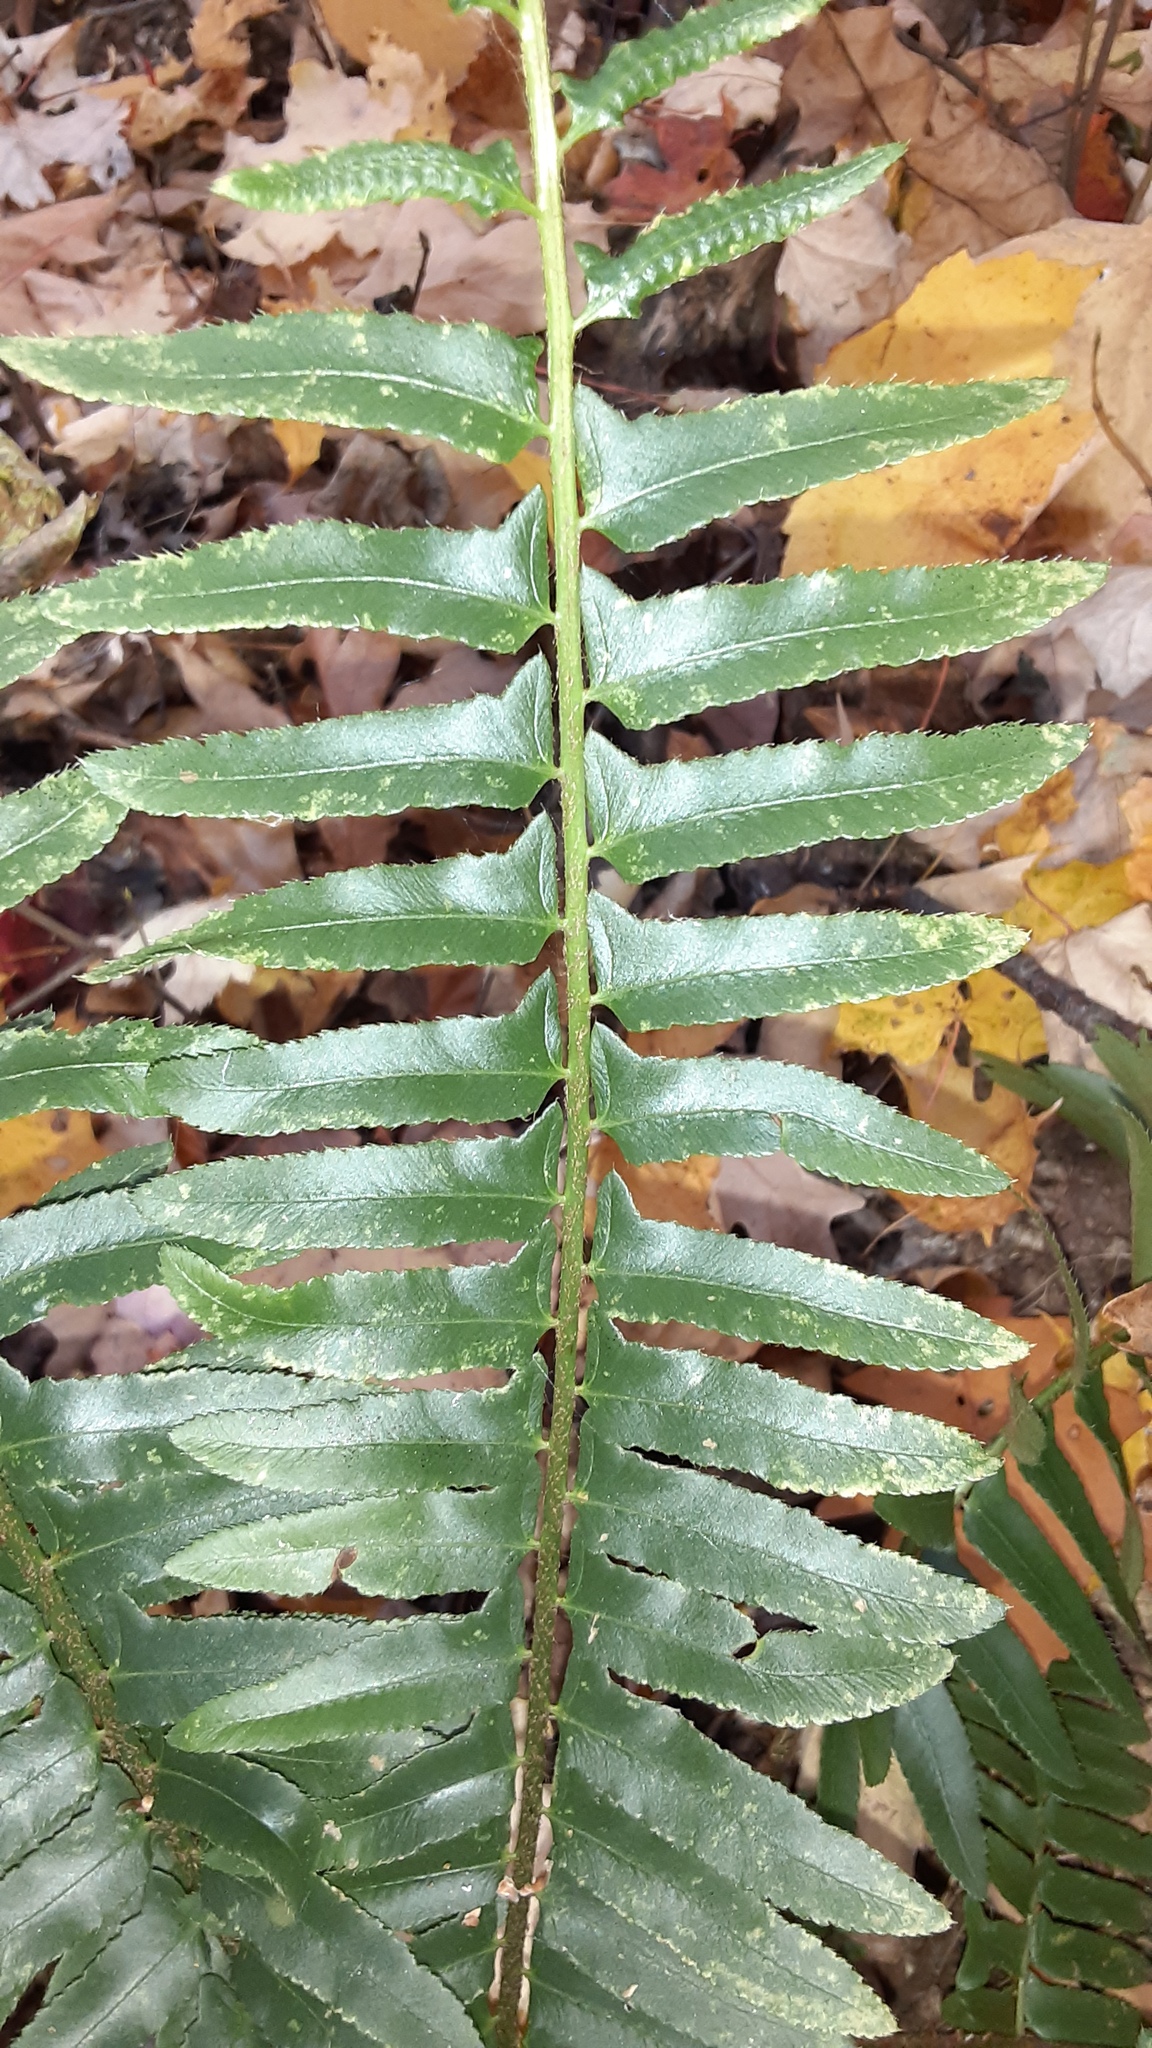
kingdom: Plantae
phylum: Tracheophyta
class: Polypodiopsida
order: Polypodiales
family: Dryopteridaceae
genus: Polystichum
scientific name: Polystichum acrostichoides
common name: Christmas fern
